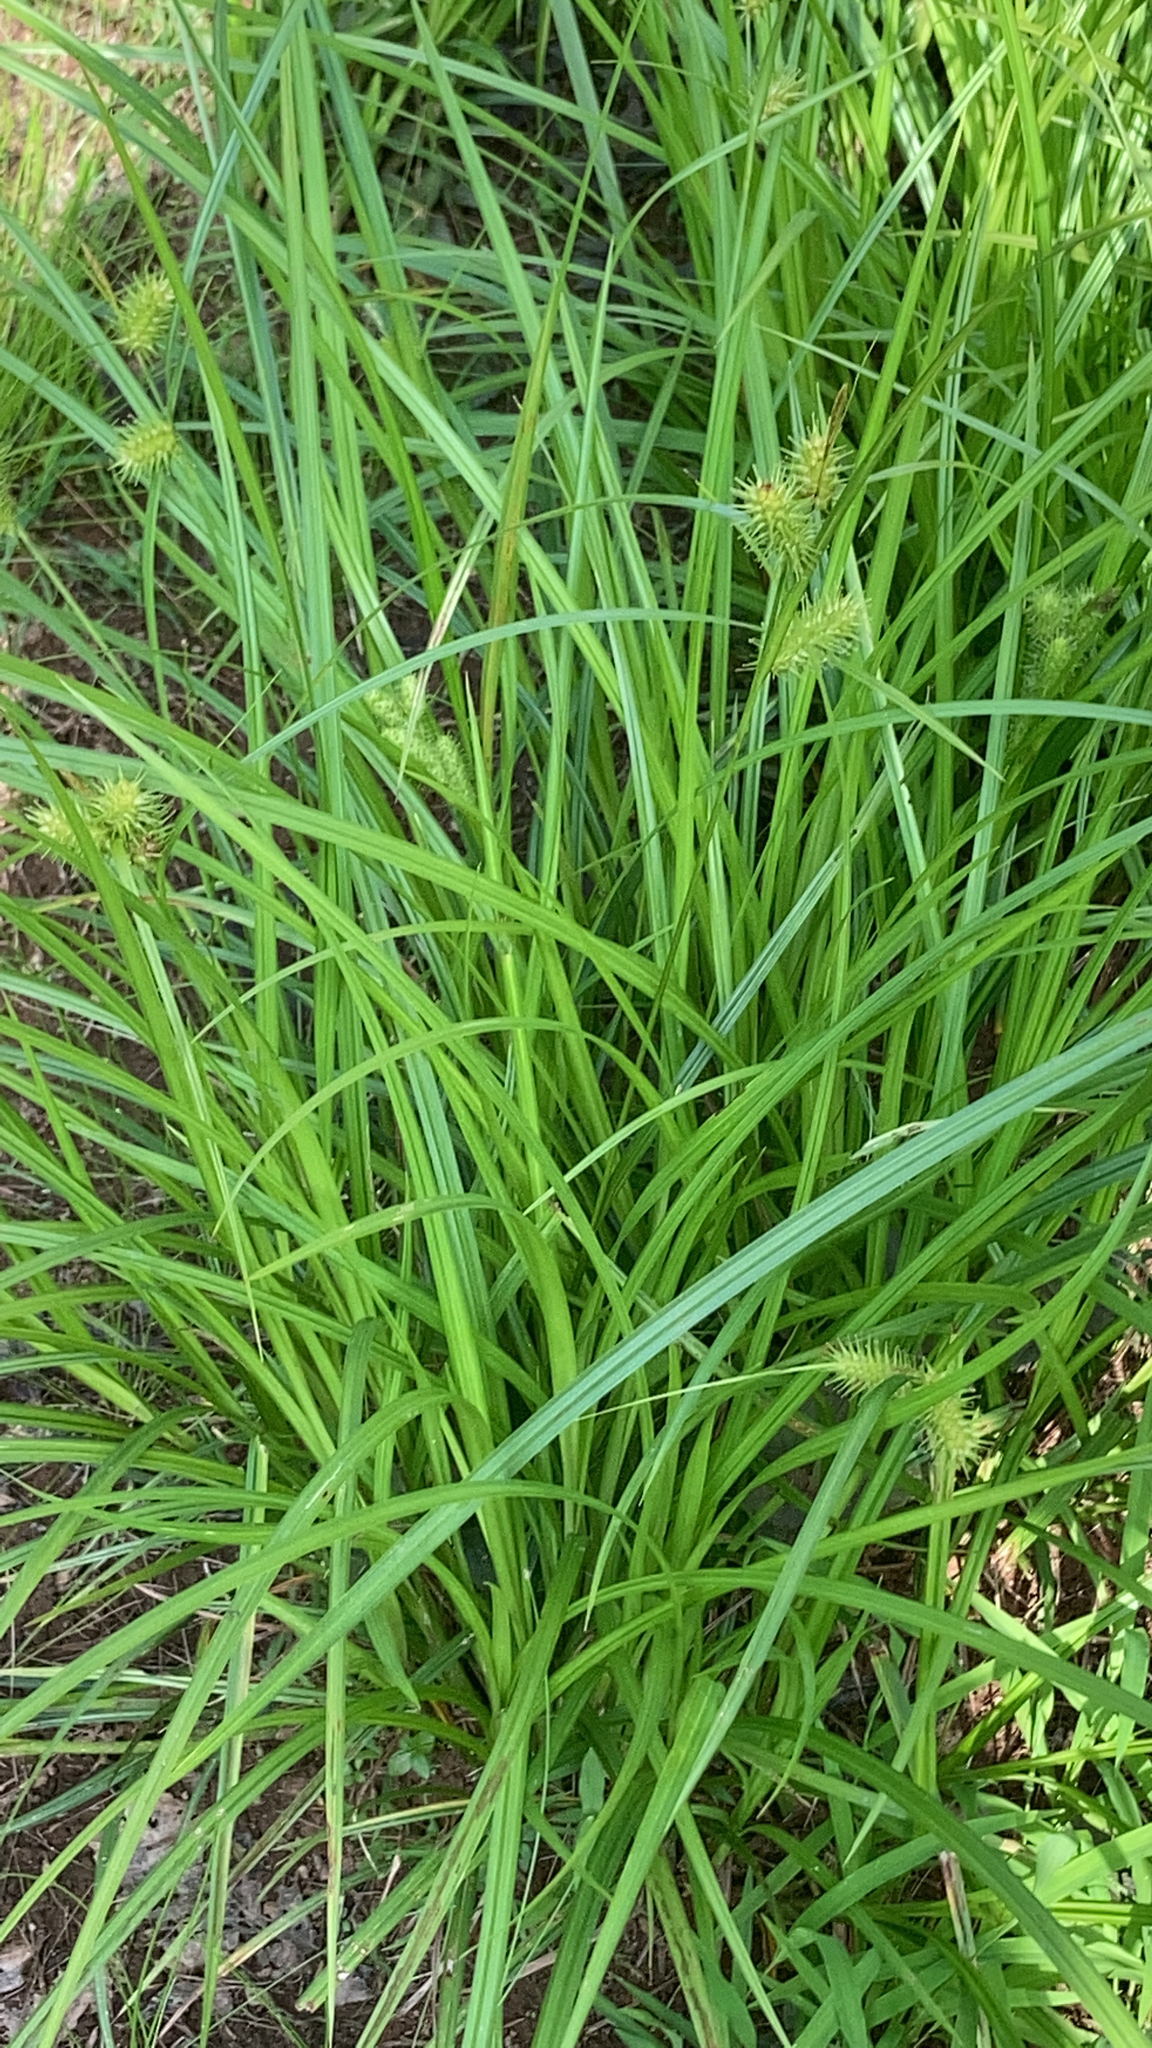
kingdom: Plantae
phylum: Tracheophyta
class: Liliopsida
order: Poales
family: Cyperaceae
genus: Carex
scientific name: Carex lurida
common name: Sallow sedge
